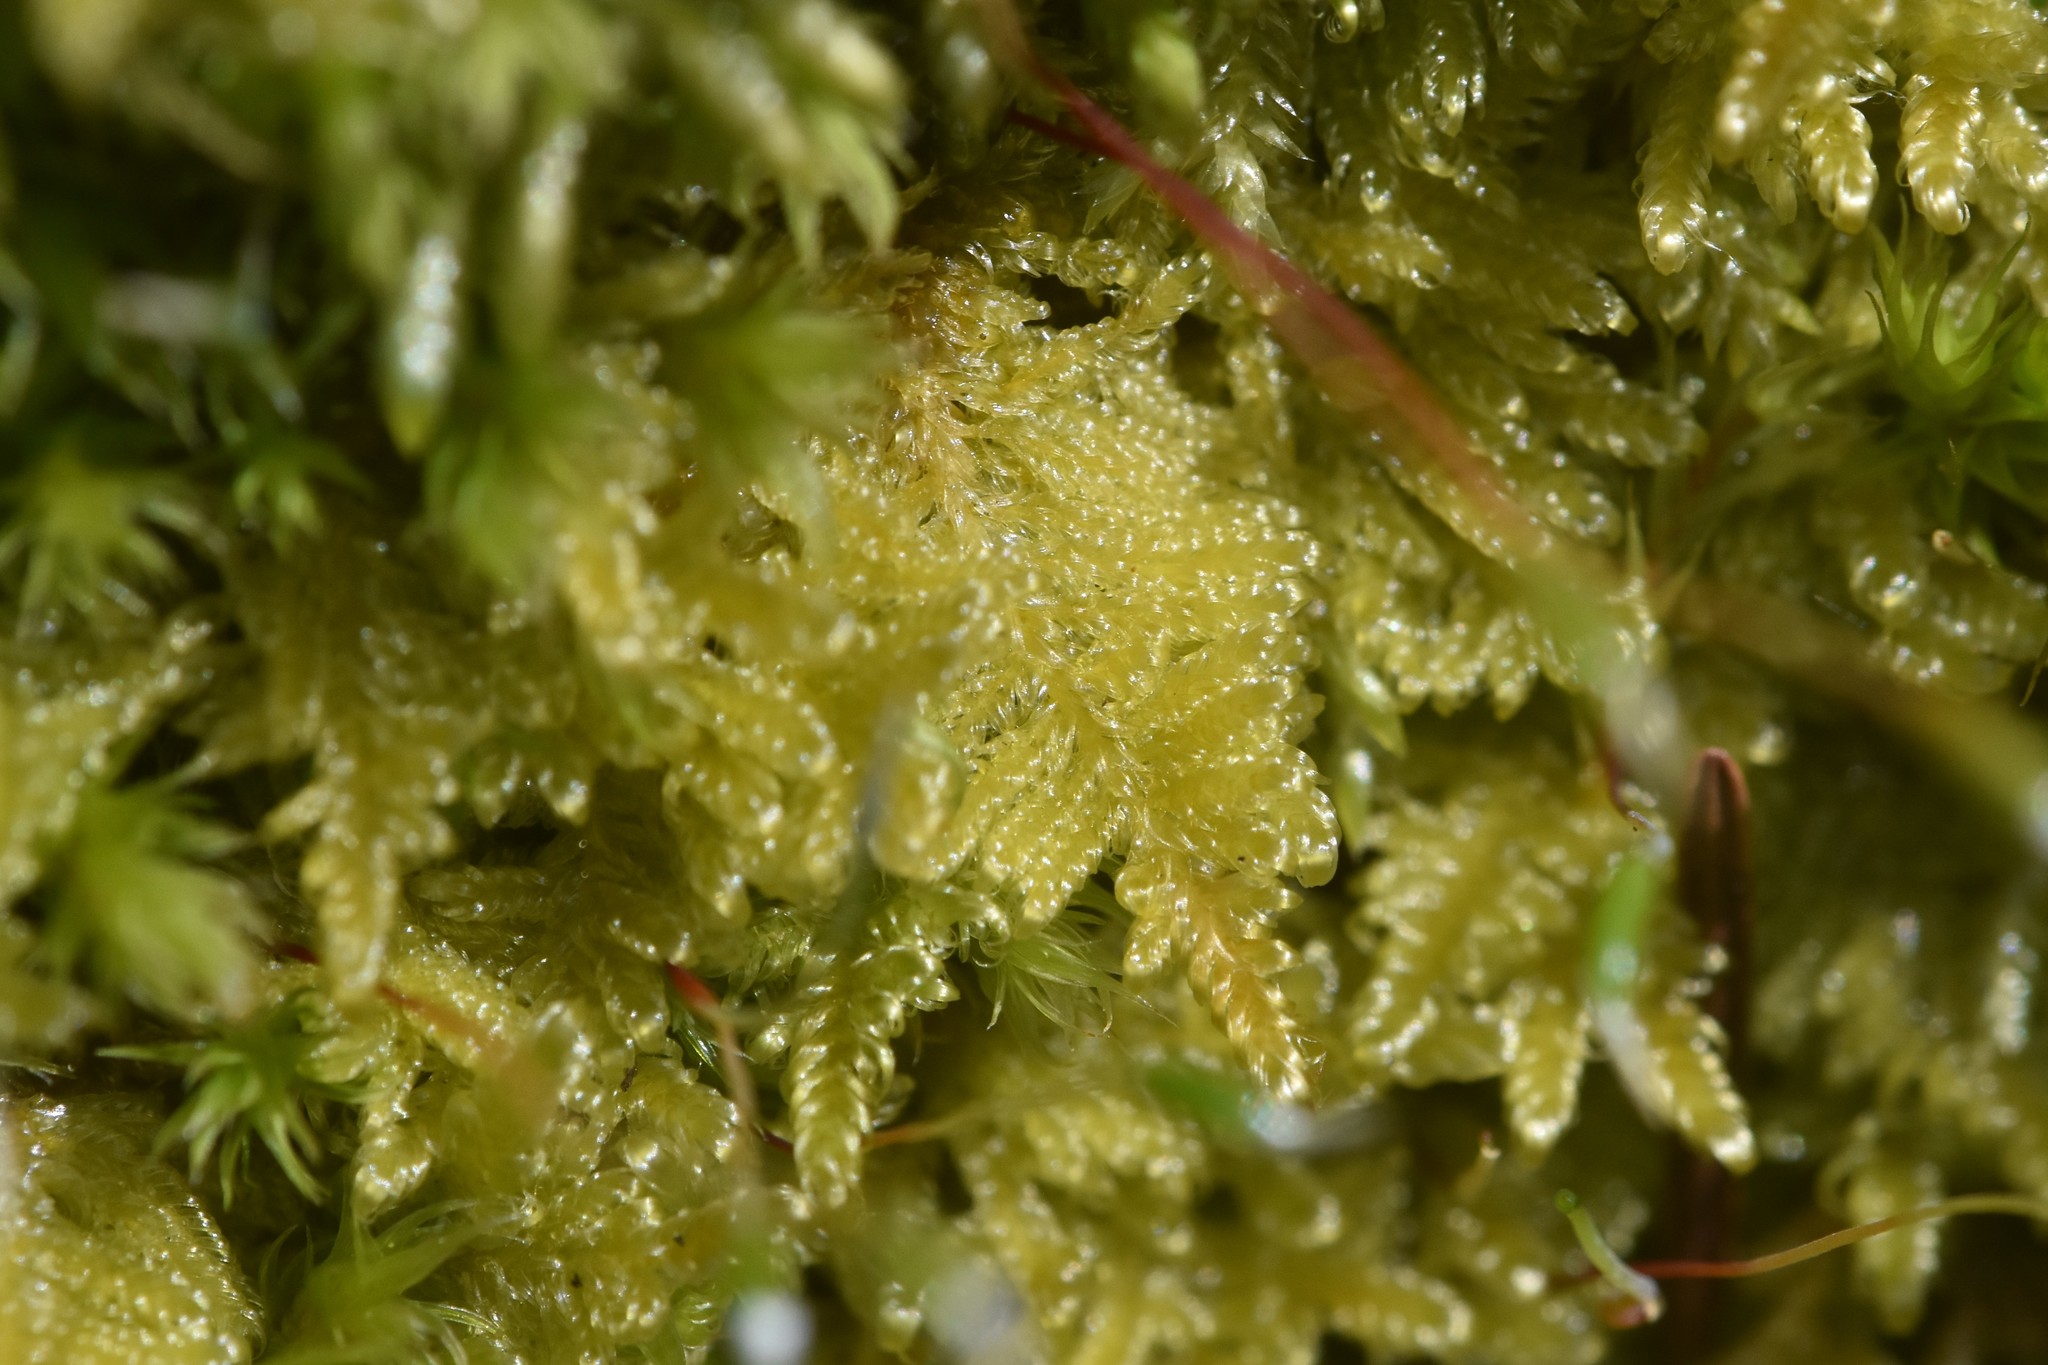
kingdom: Plantae
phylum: Bryophyta
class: Bryopsida
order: Hypnales
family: Stereodontaceae
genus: Stereodon
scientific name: Stereodon subimponens
